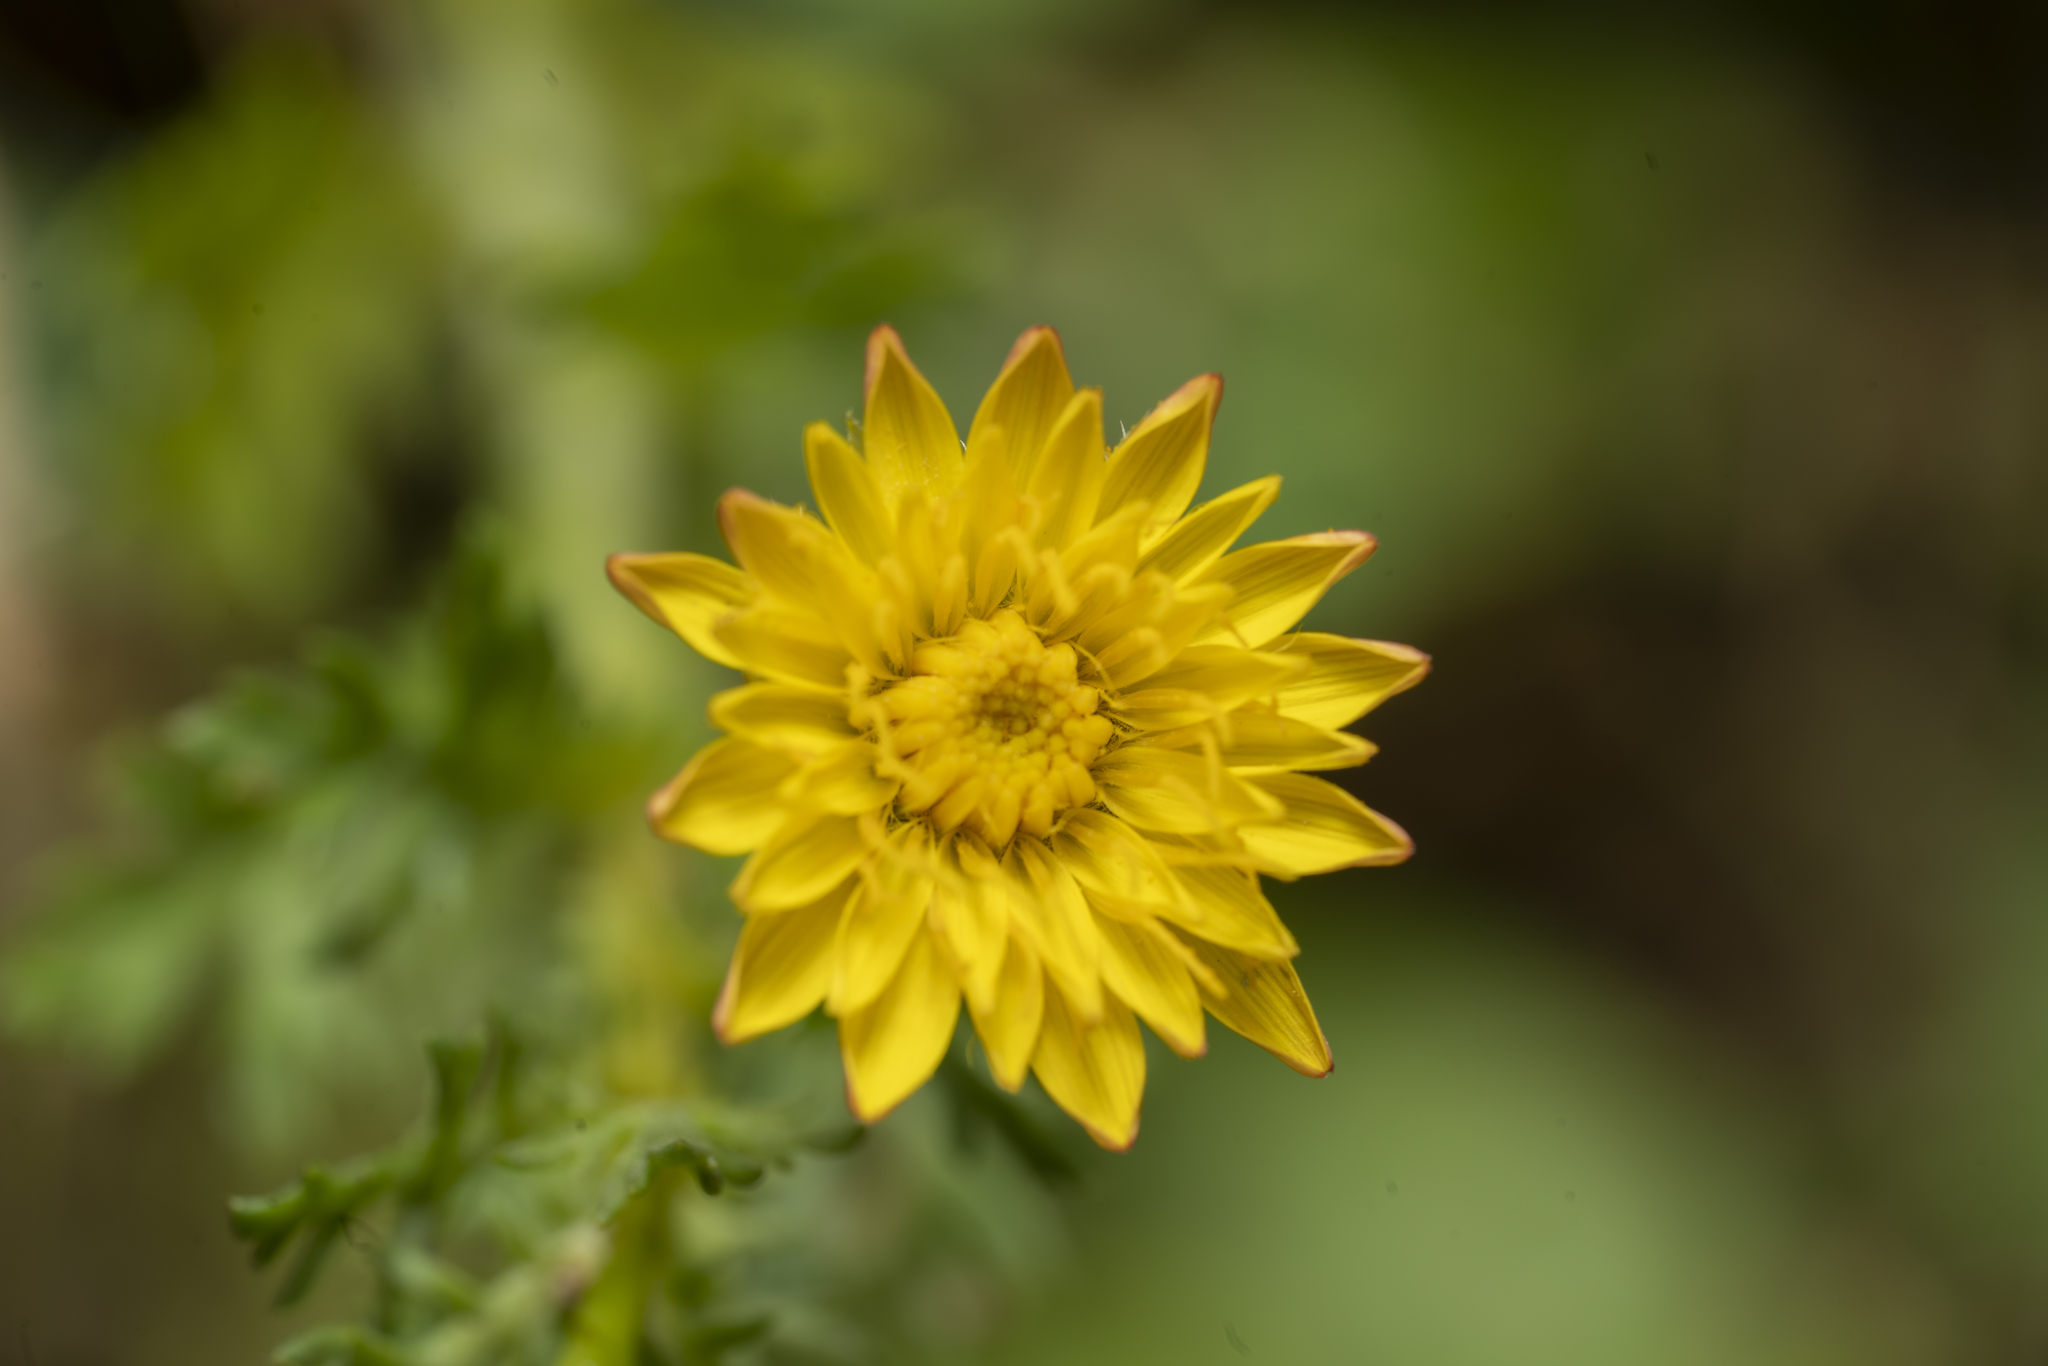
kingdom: Plantae
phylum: Tracheophyta
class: Magnoliopsida
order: Asterales
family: Asteraceae
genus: Achyrophorus
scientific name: Achyrophorus valdesii
